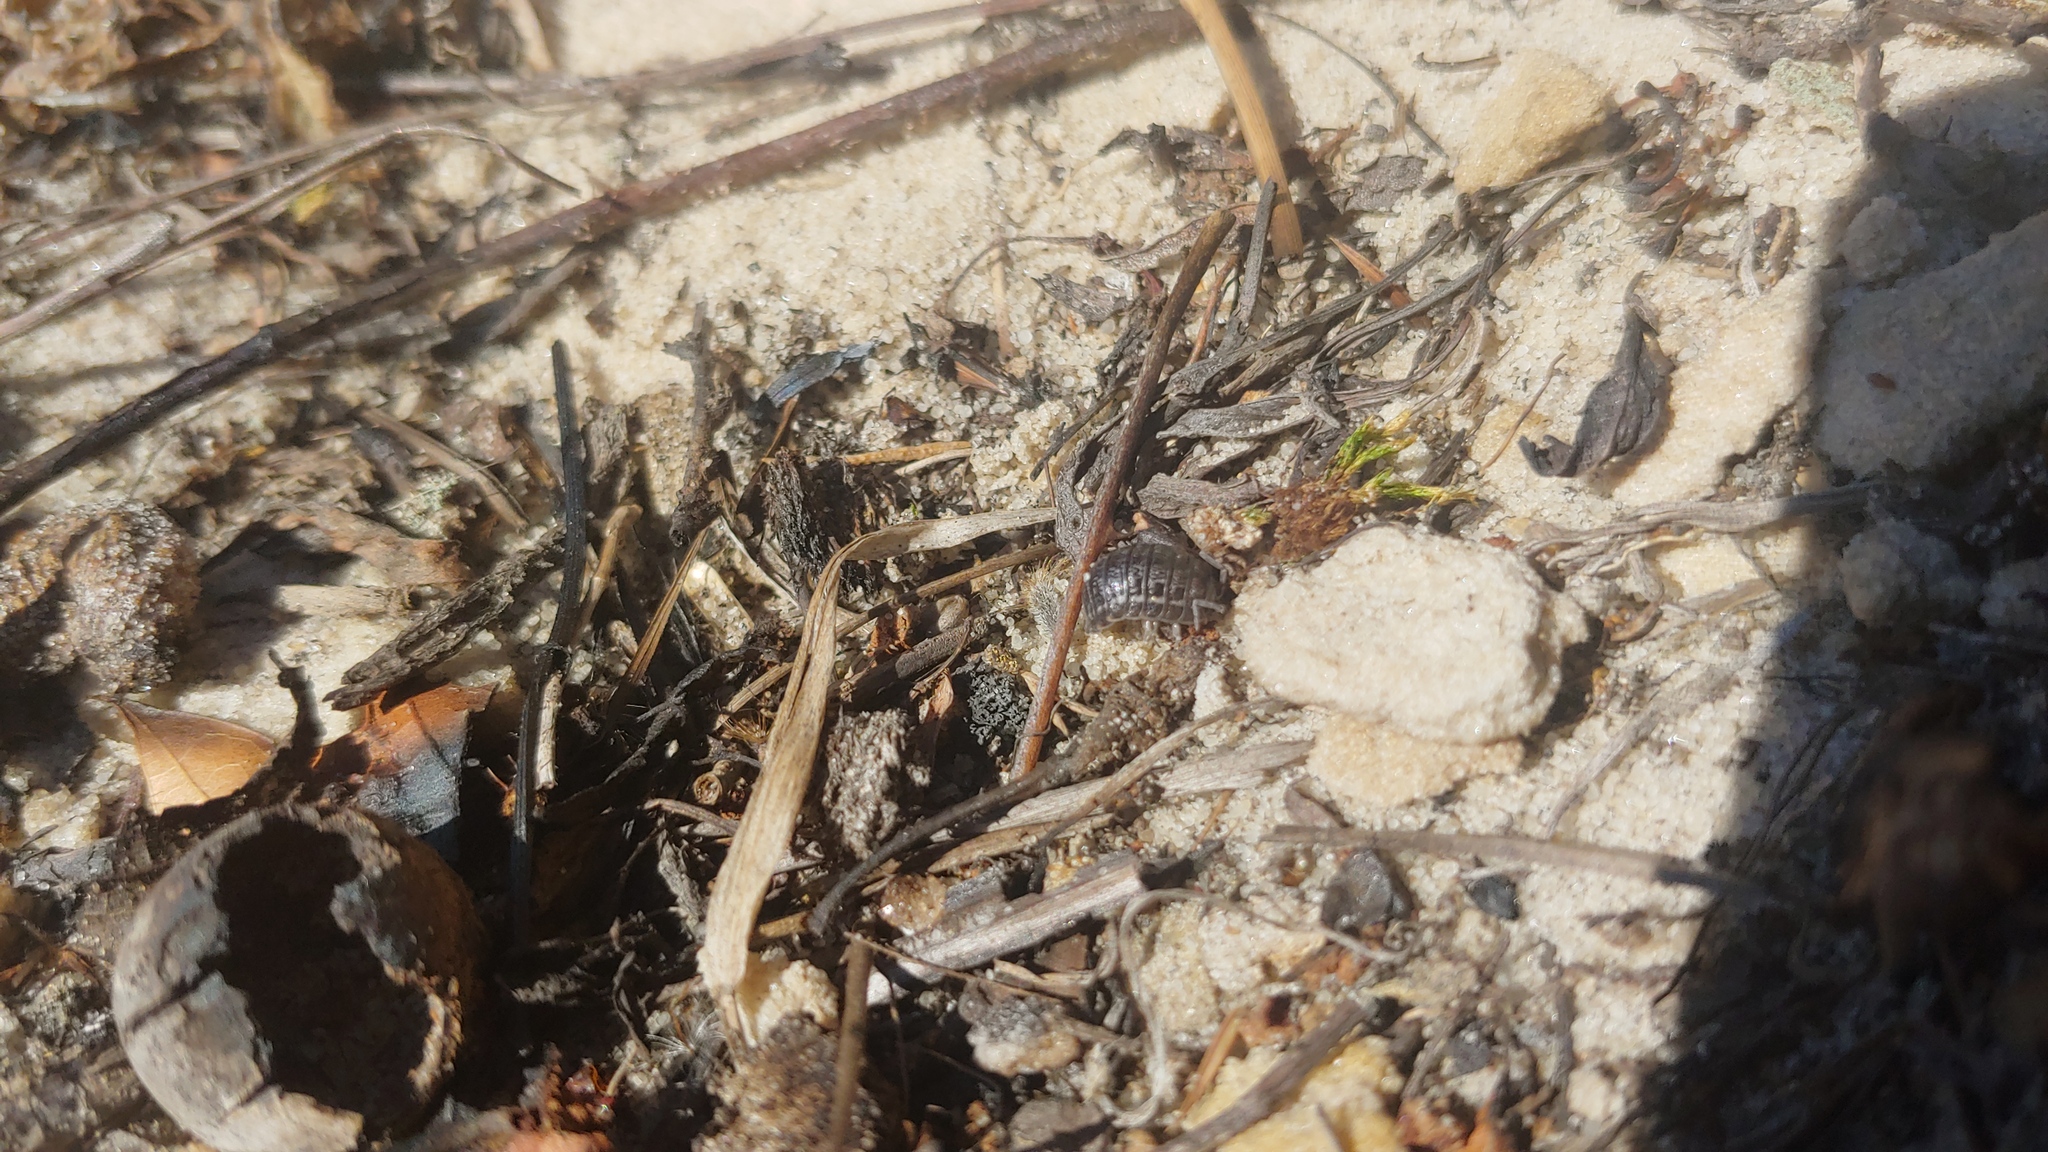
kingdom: Animalia
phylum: Arthropoda
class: Malacostraca
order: Isopoda
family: Trachelipodidae
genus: Trachelipus
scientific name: Trachelipus rathkii
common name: Isopod
